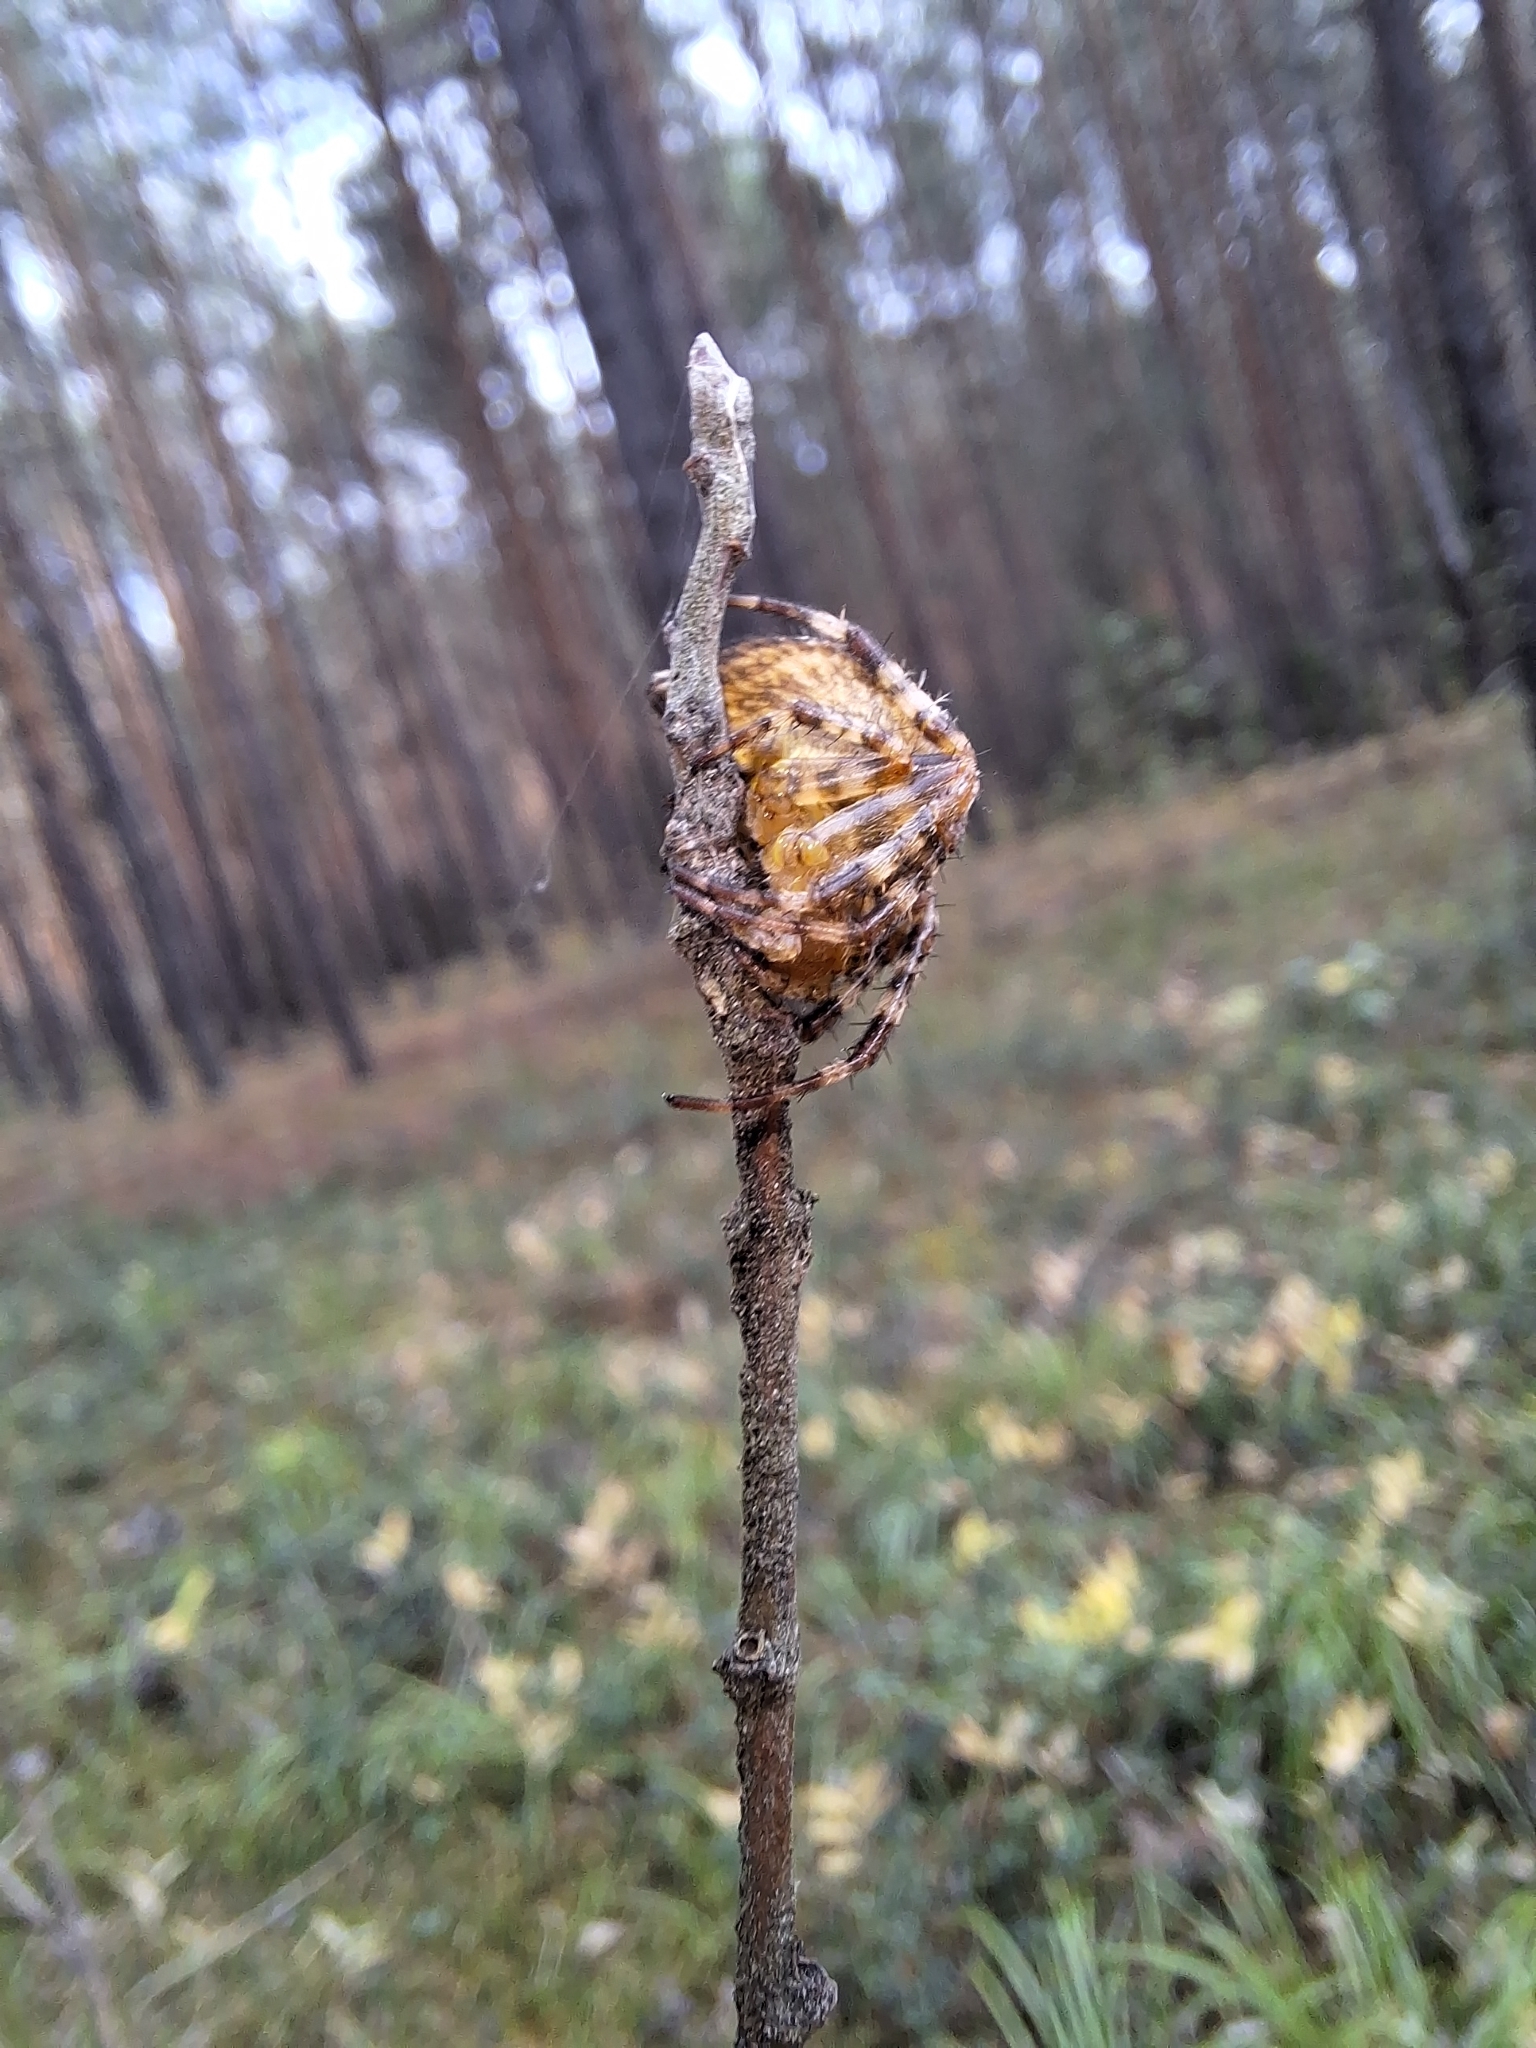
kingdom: Animalia
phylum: Arthropoda
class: Arachnida
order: Araneae
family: Araneidae
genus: Araneus
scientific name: Araneus diadematus
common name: Cross orbweaver
